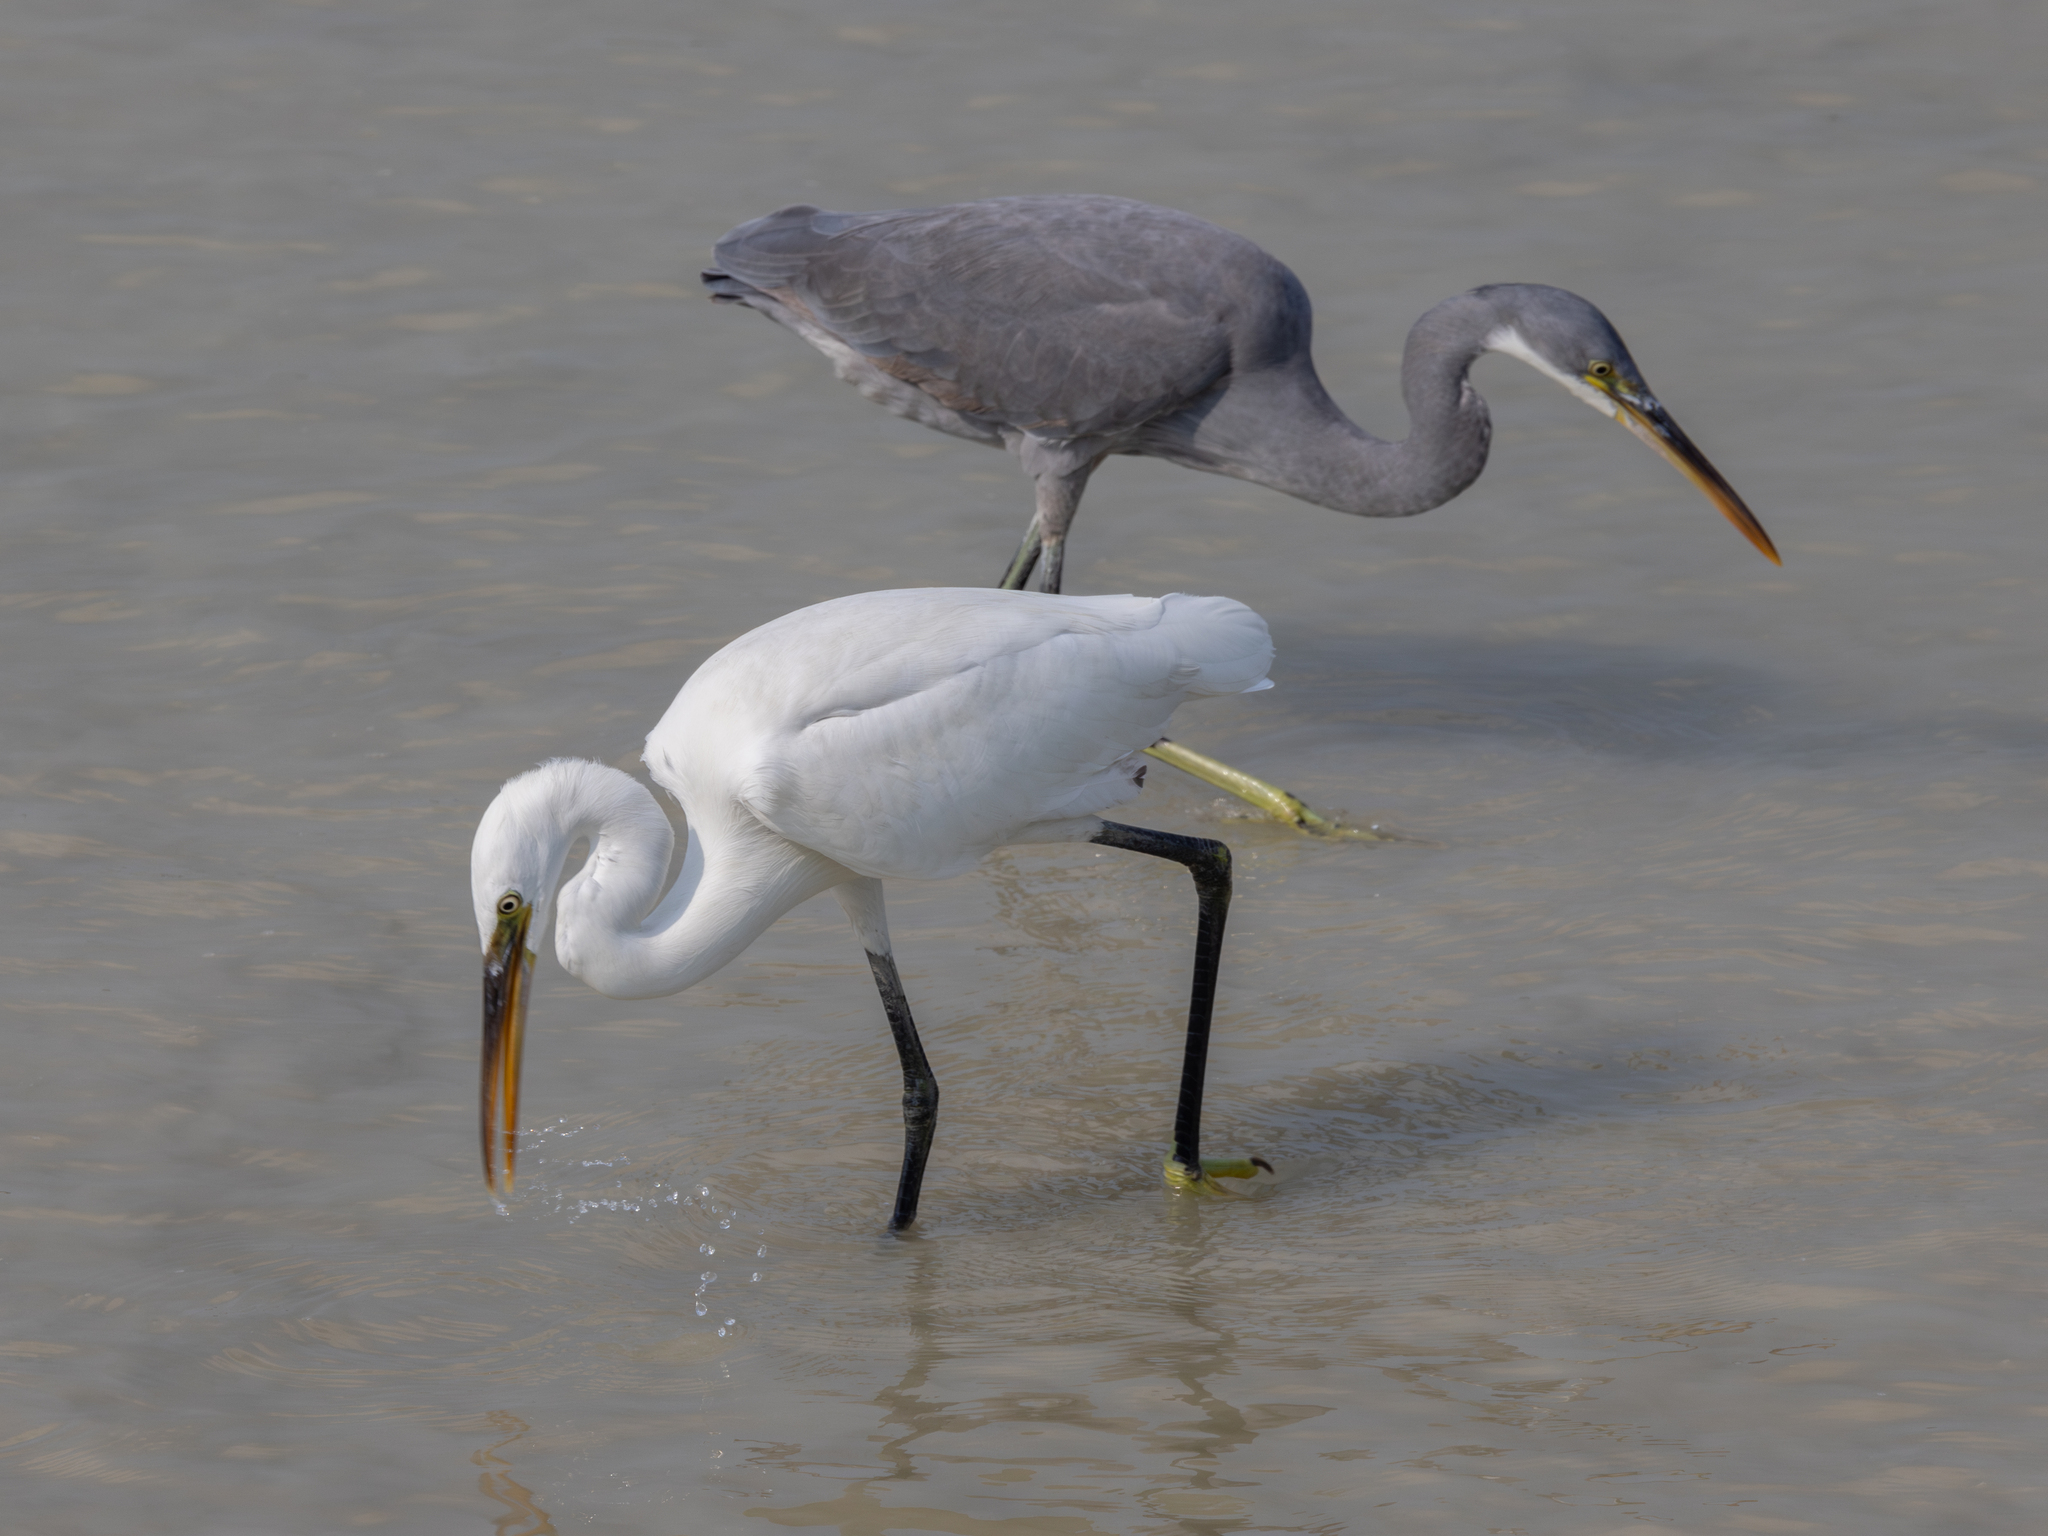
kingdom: Animalia
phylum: Chordata
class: Aves
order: Pelecaniformes
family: Ardeidae
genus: Egretta
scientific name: Egretta gularis
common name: Western reef-heron
